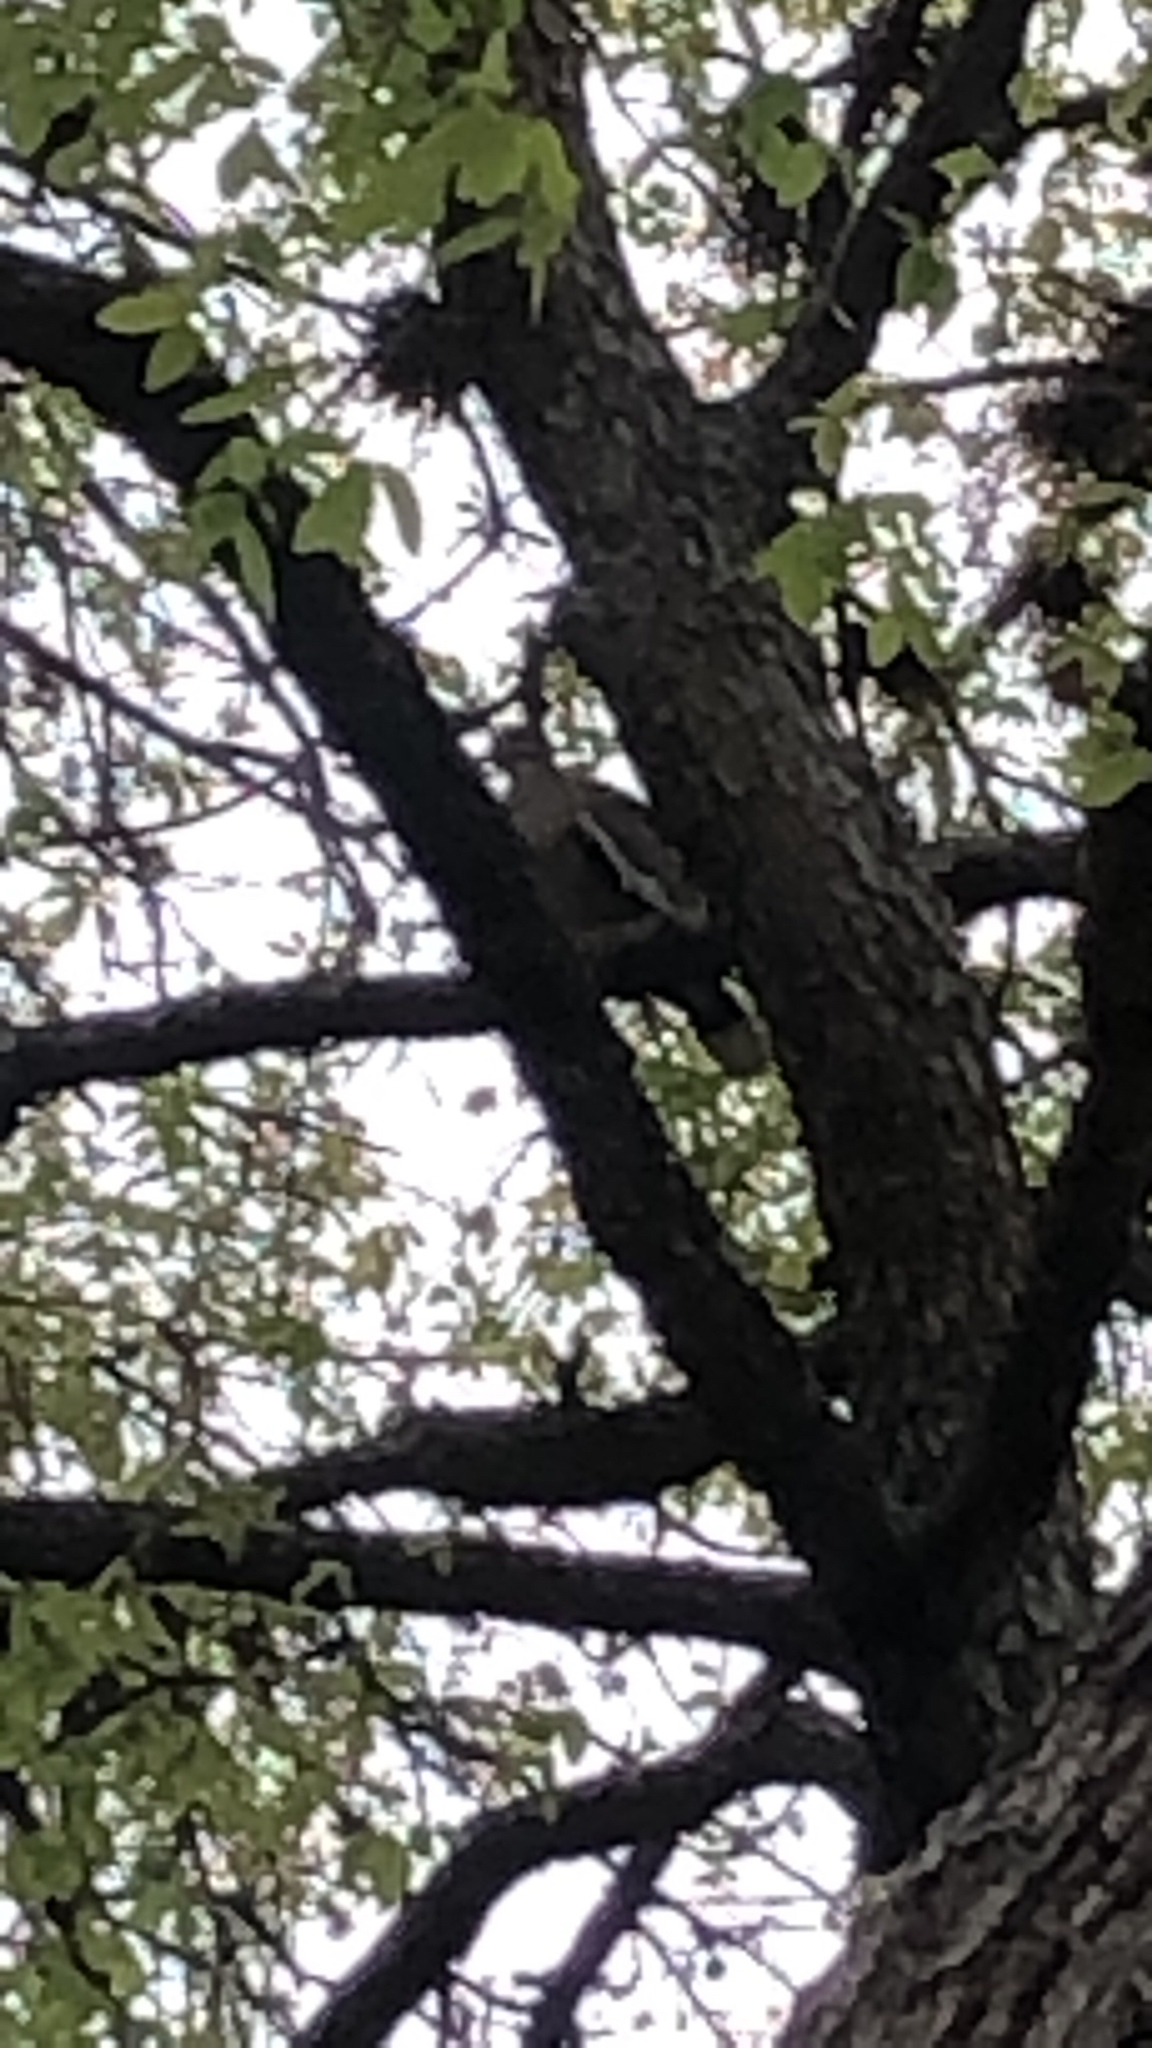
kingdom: Animalia
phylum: Chordata
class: Aves
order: Columbiformes
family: Columbidae
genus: Zenaida
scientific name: Zenaida asiatica
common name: White-winged dove
